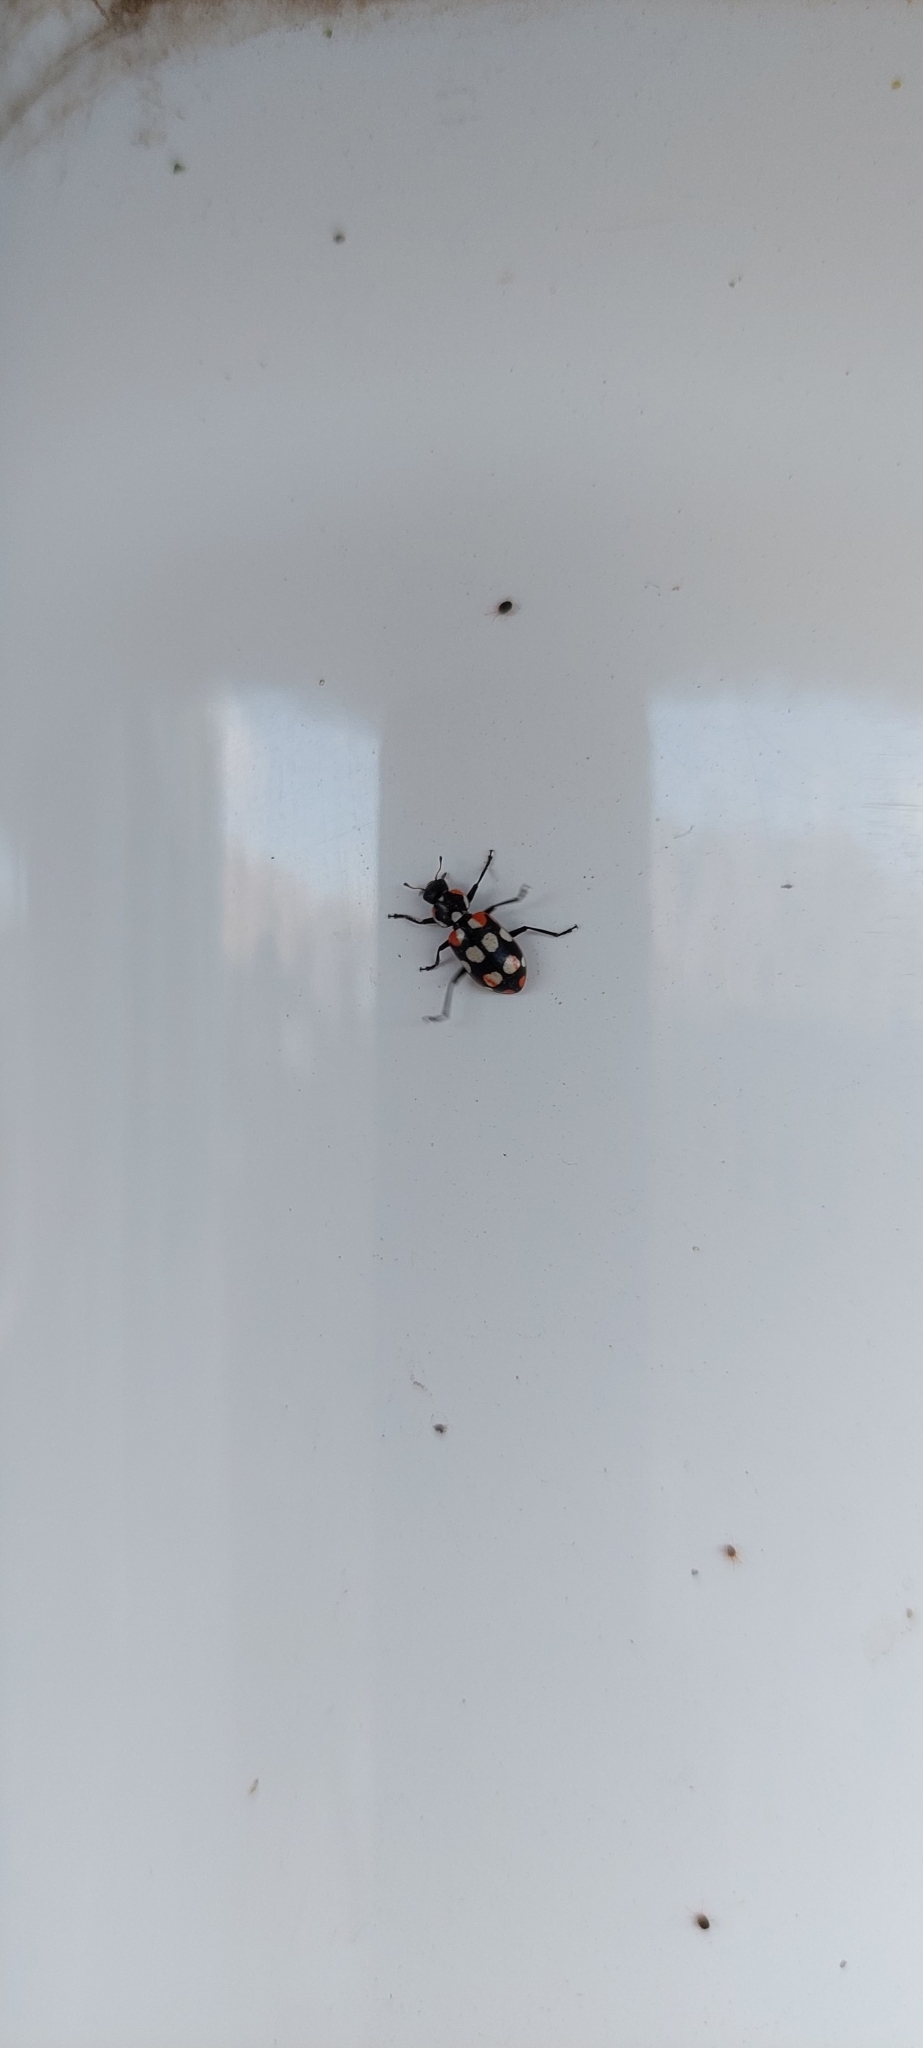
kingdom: Animalia
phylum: Arthropoda
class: Insecta
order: Coleoptera
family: Coccinellidae
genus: Eriopis
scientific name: Eriopis connexa
